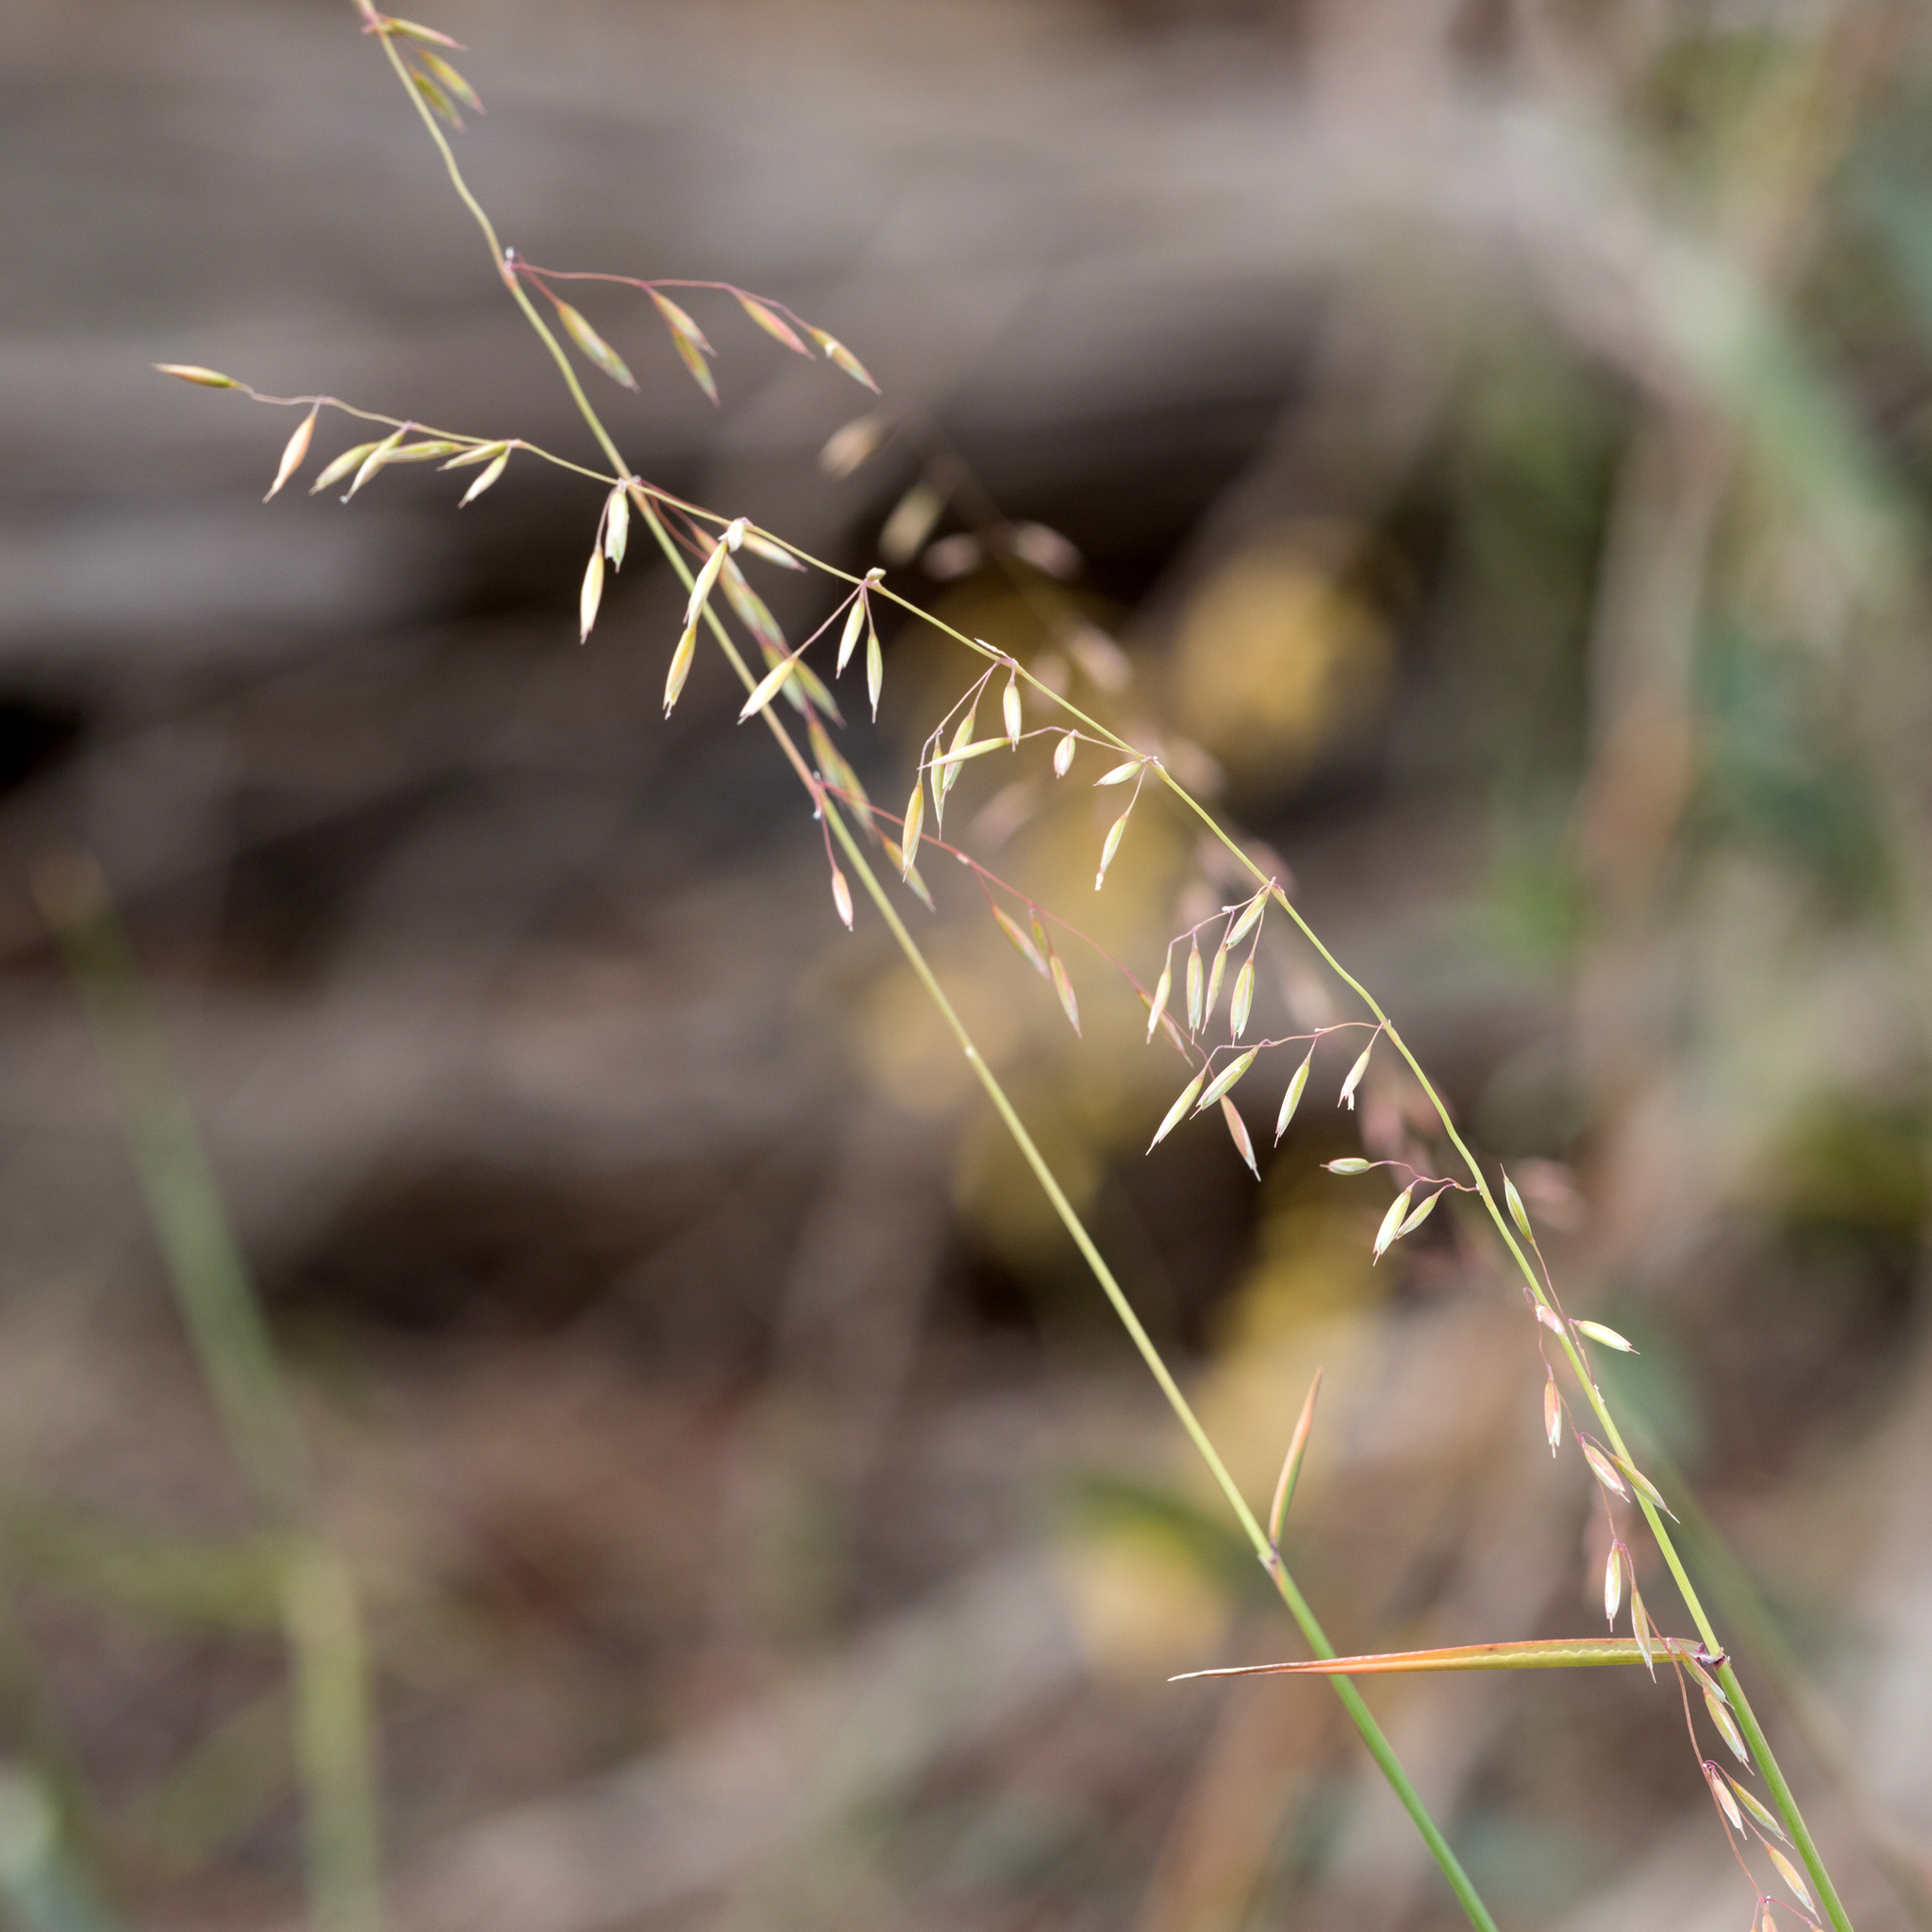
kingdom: Plantae
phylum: Tracheophyta
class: Liliopsida
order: Poales
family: Poaceae
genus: Ehrharta
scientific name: Ehrharta calycina
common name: Perennial veldtgrass
